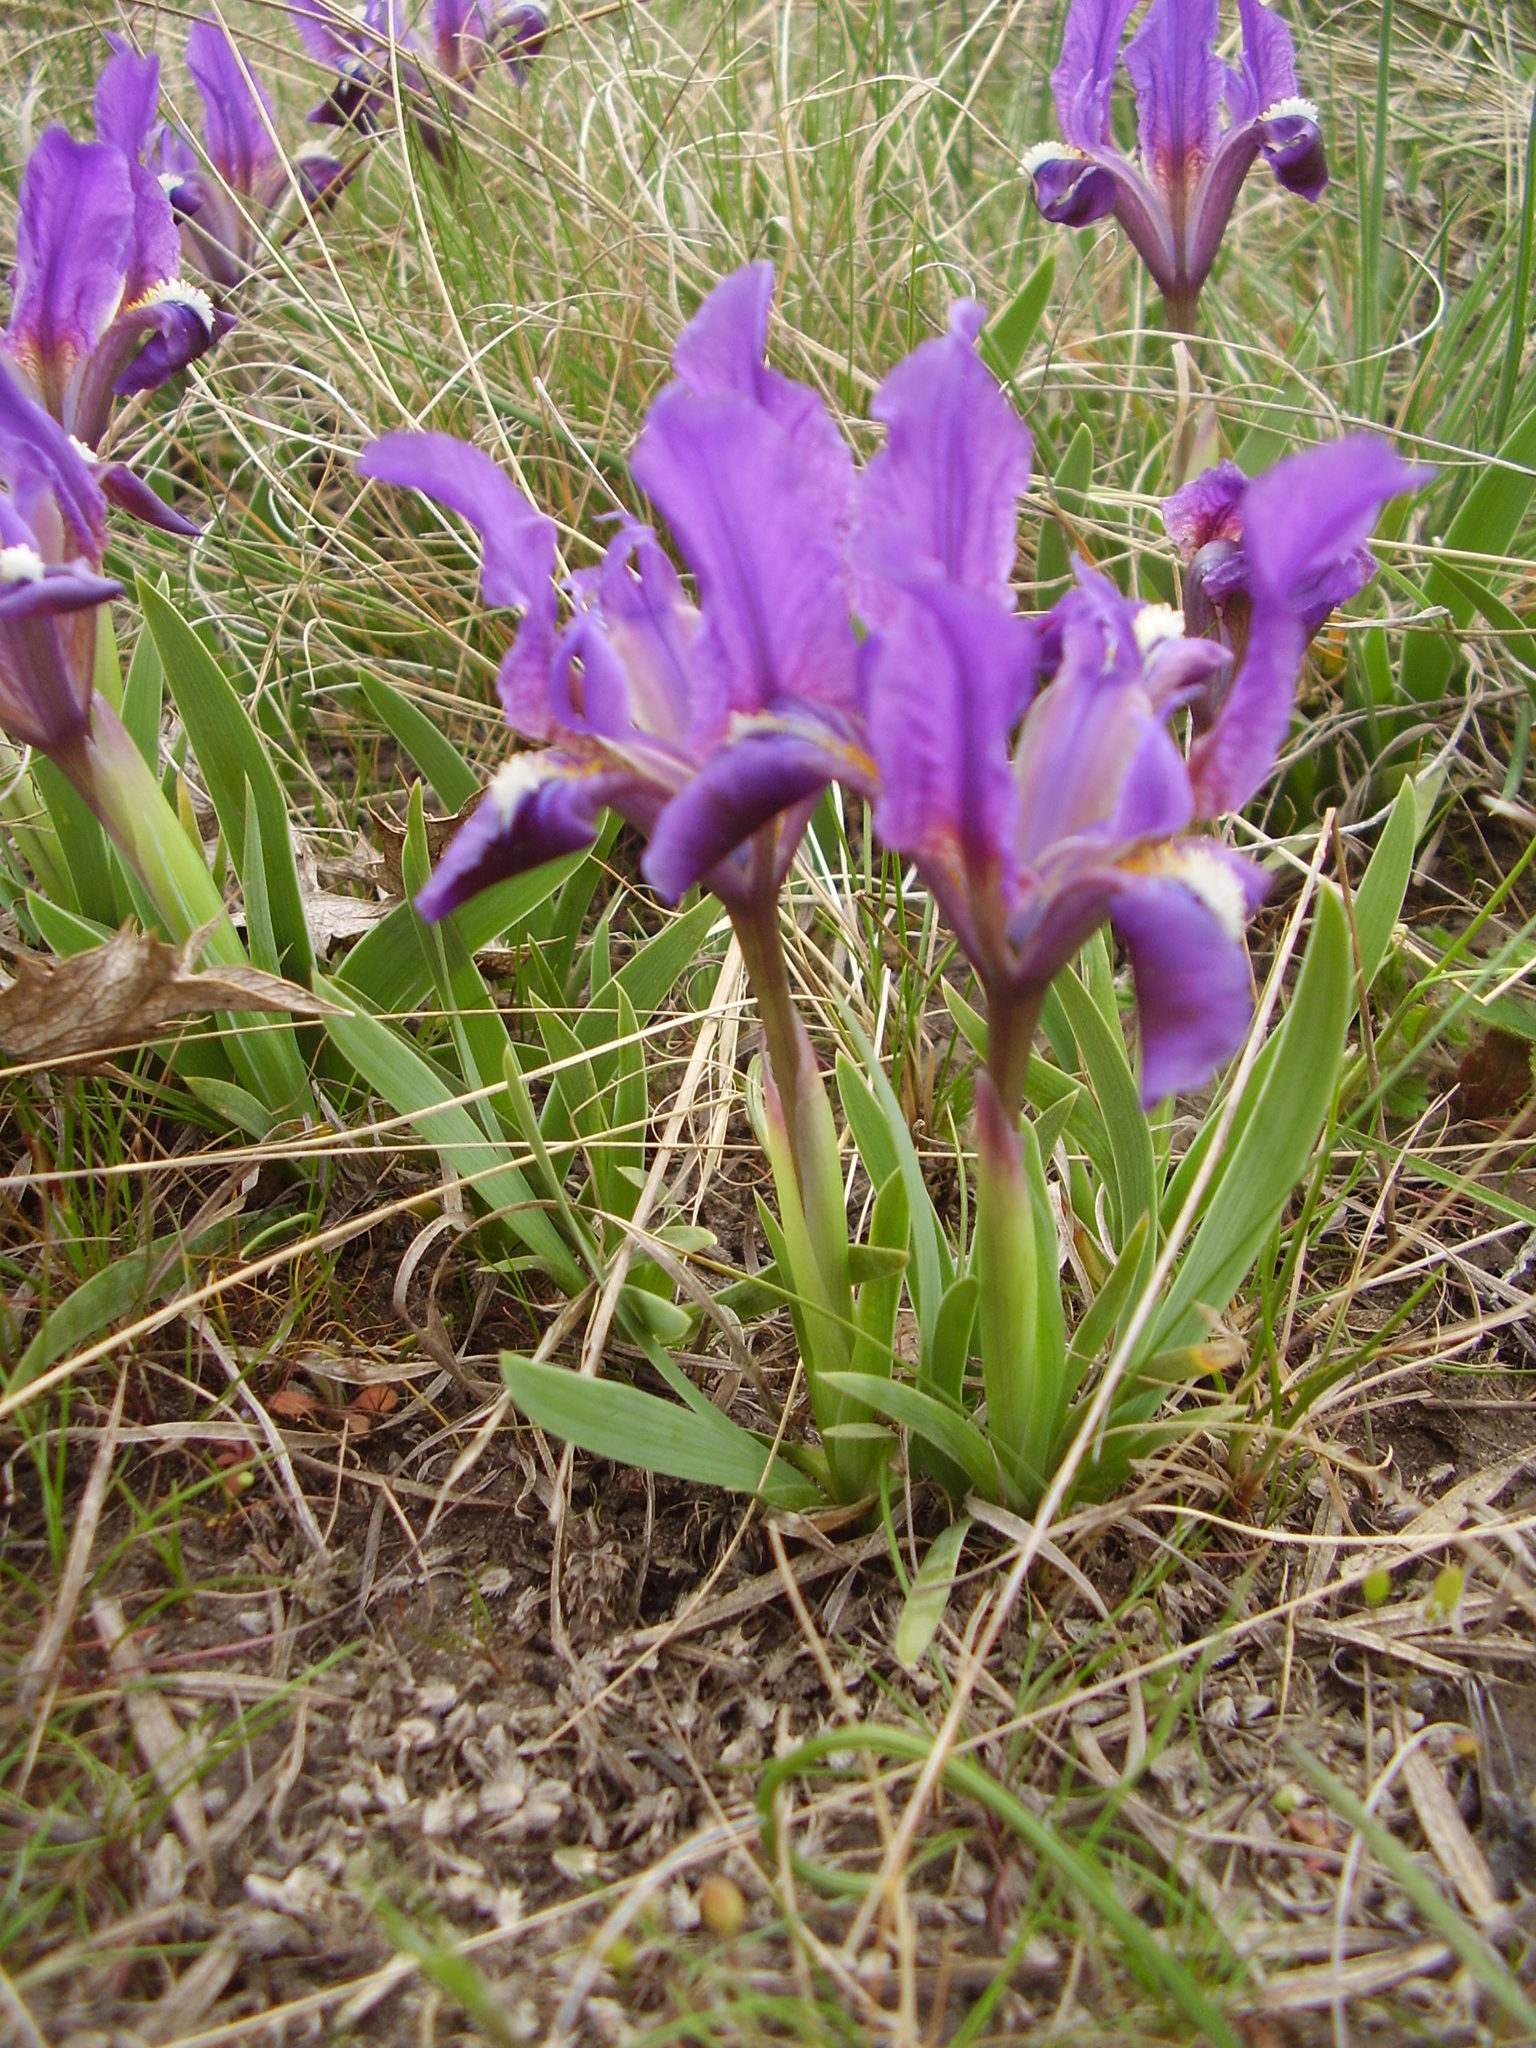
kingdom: Plantae
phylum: Tracheophyta
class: Liliopsida
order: Asparagales
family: Iridaceae
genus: Iris
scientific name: Iris pumila
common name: Dwarf iris
